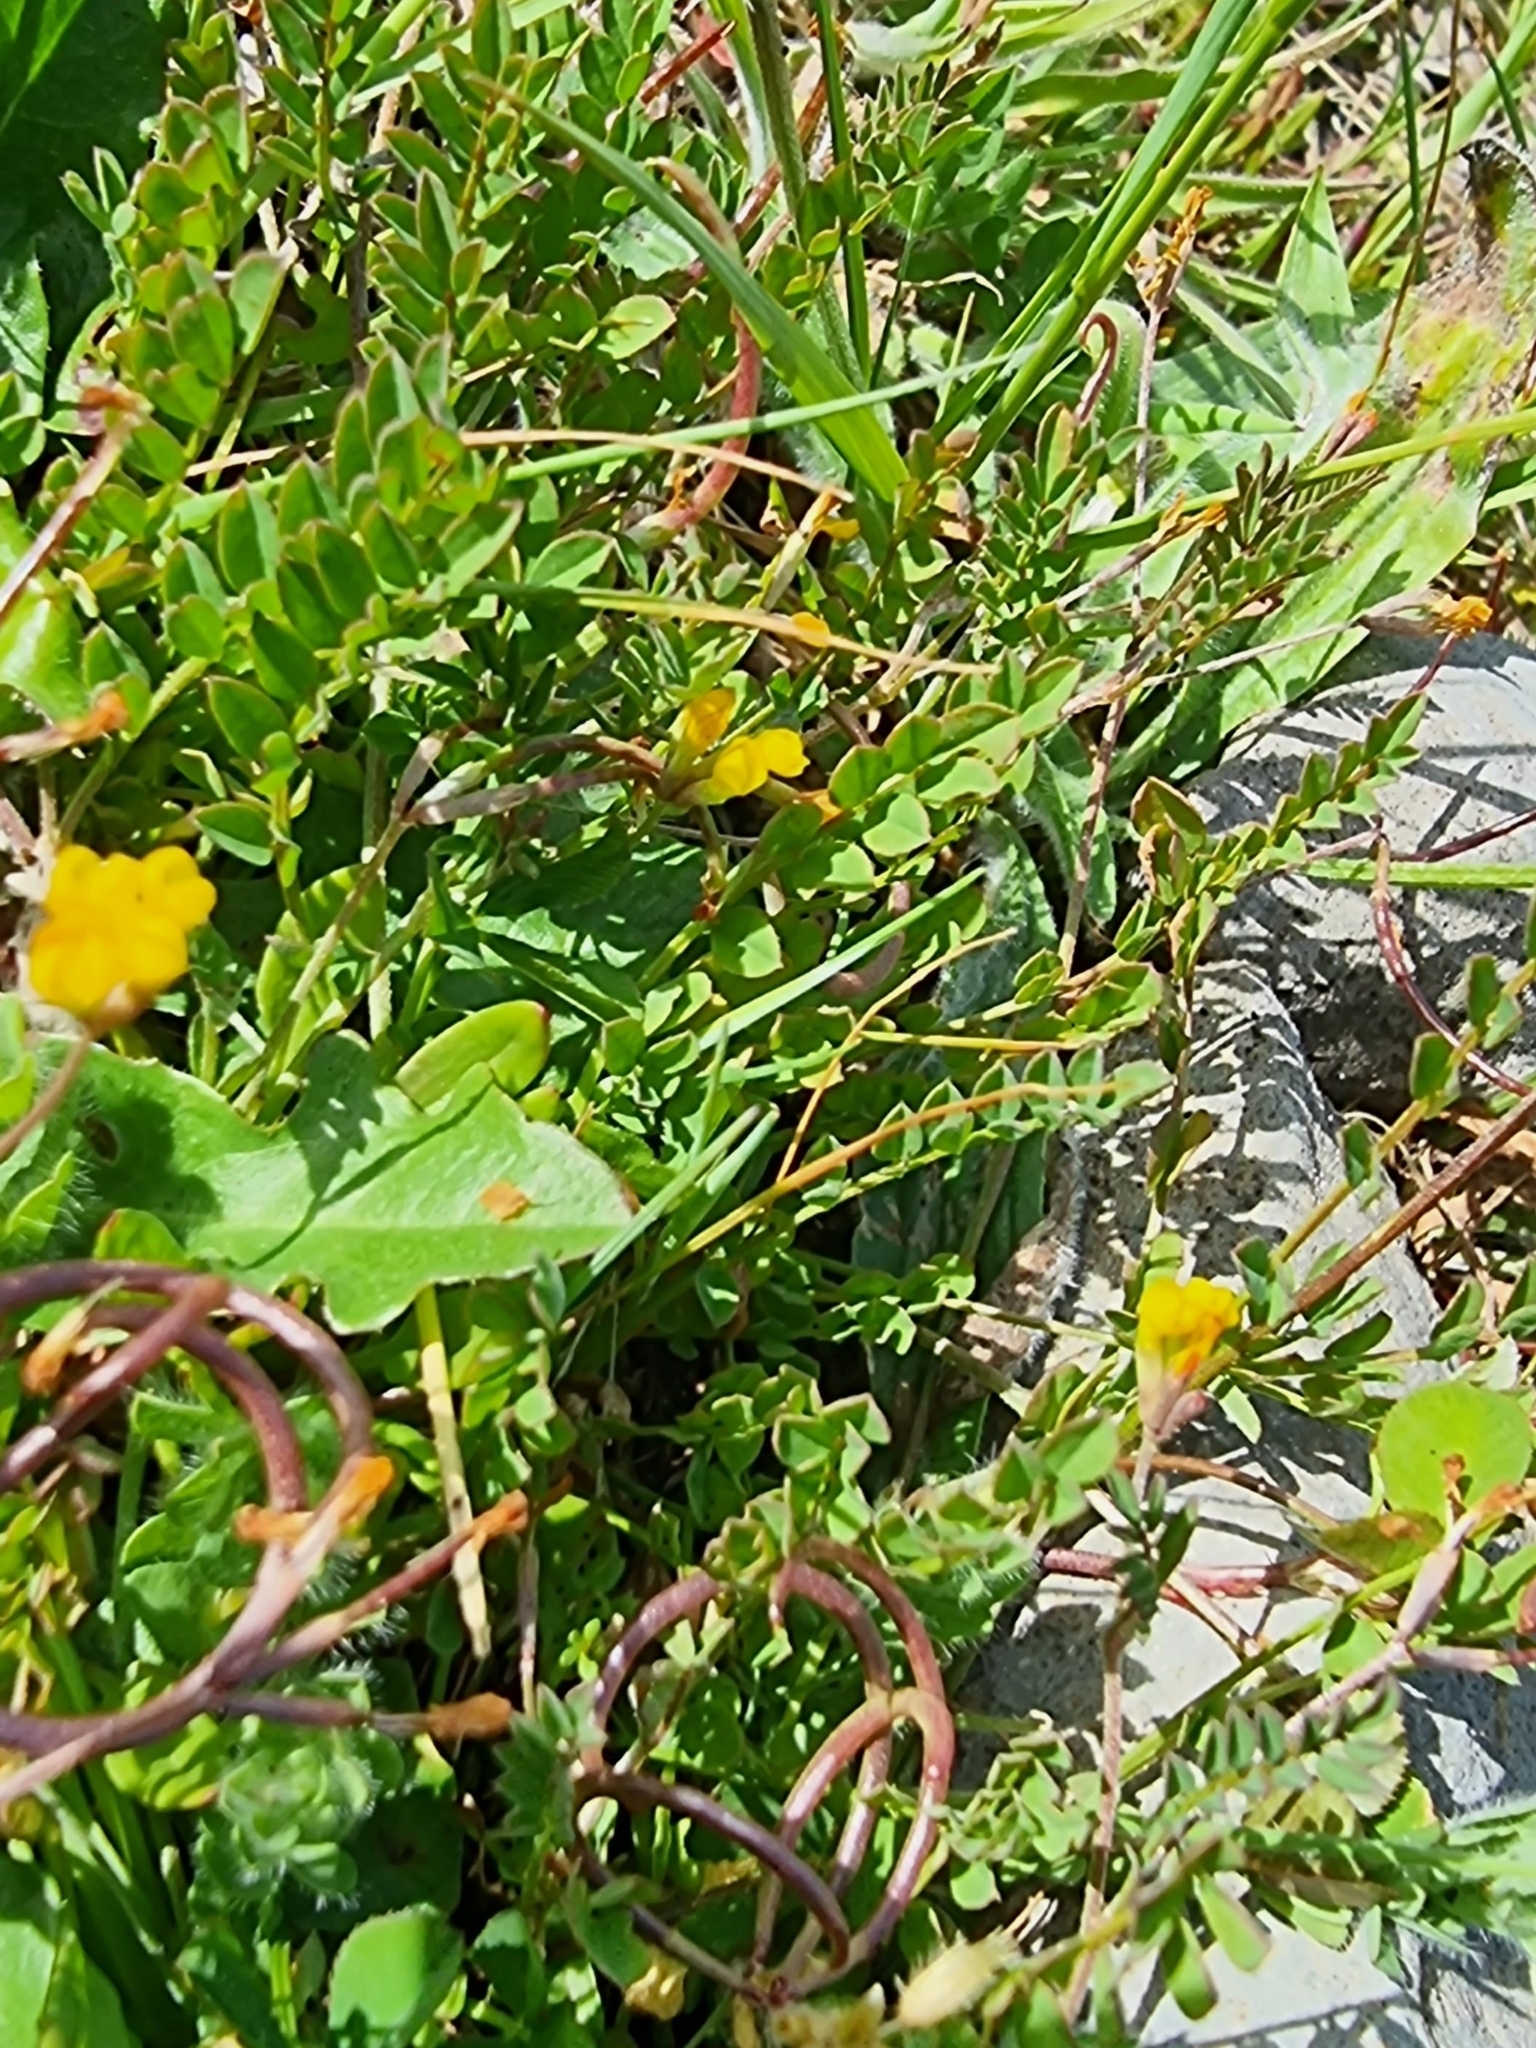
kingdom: Plantae
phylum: Tracheophyta
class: Magnoliopsida
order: Fabales
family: Fabaceae
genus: Ornithopus
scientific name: Ornithopus pinnatus
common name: Orange bird's-foot
